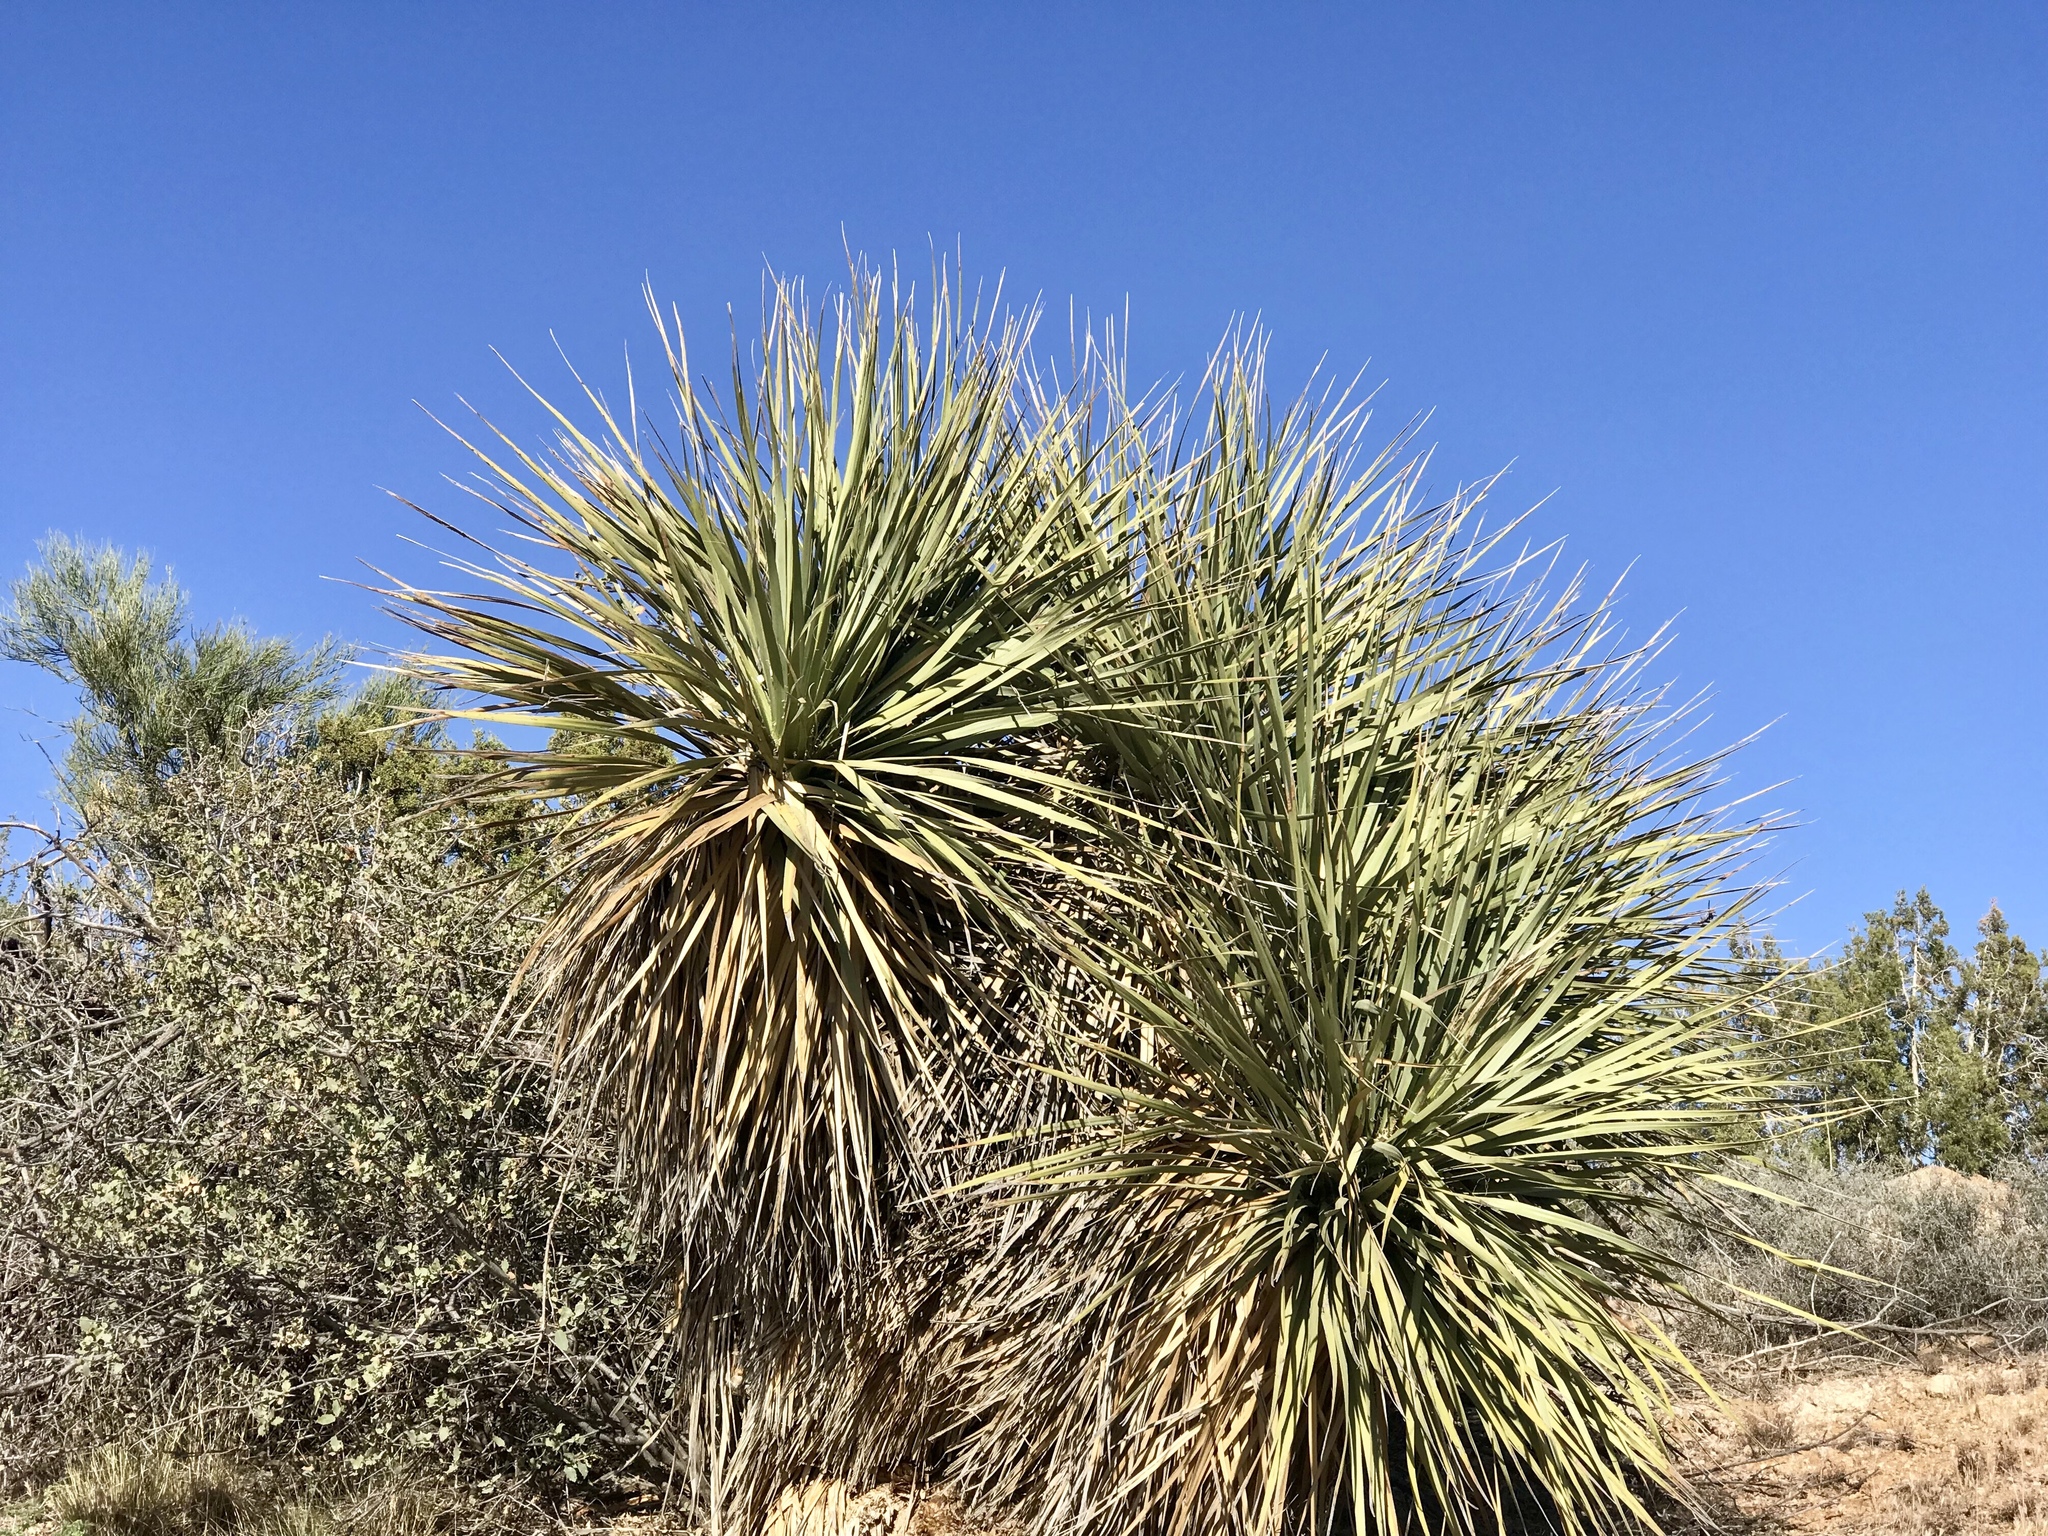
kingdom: Plantae
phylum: Tracheophyta
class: Liliopsida
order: Asparagales
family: Asparagaceae
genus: Nolina
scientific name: Nolina bigelovii
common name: Bigelow bear-grass
